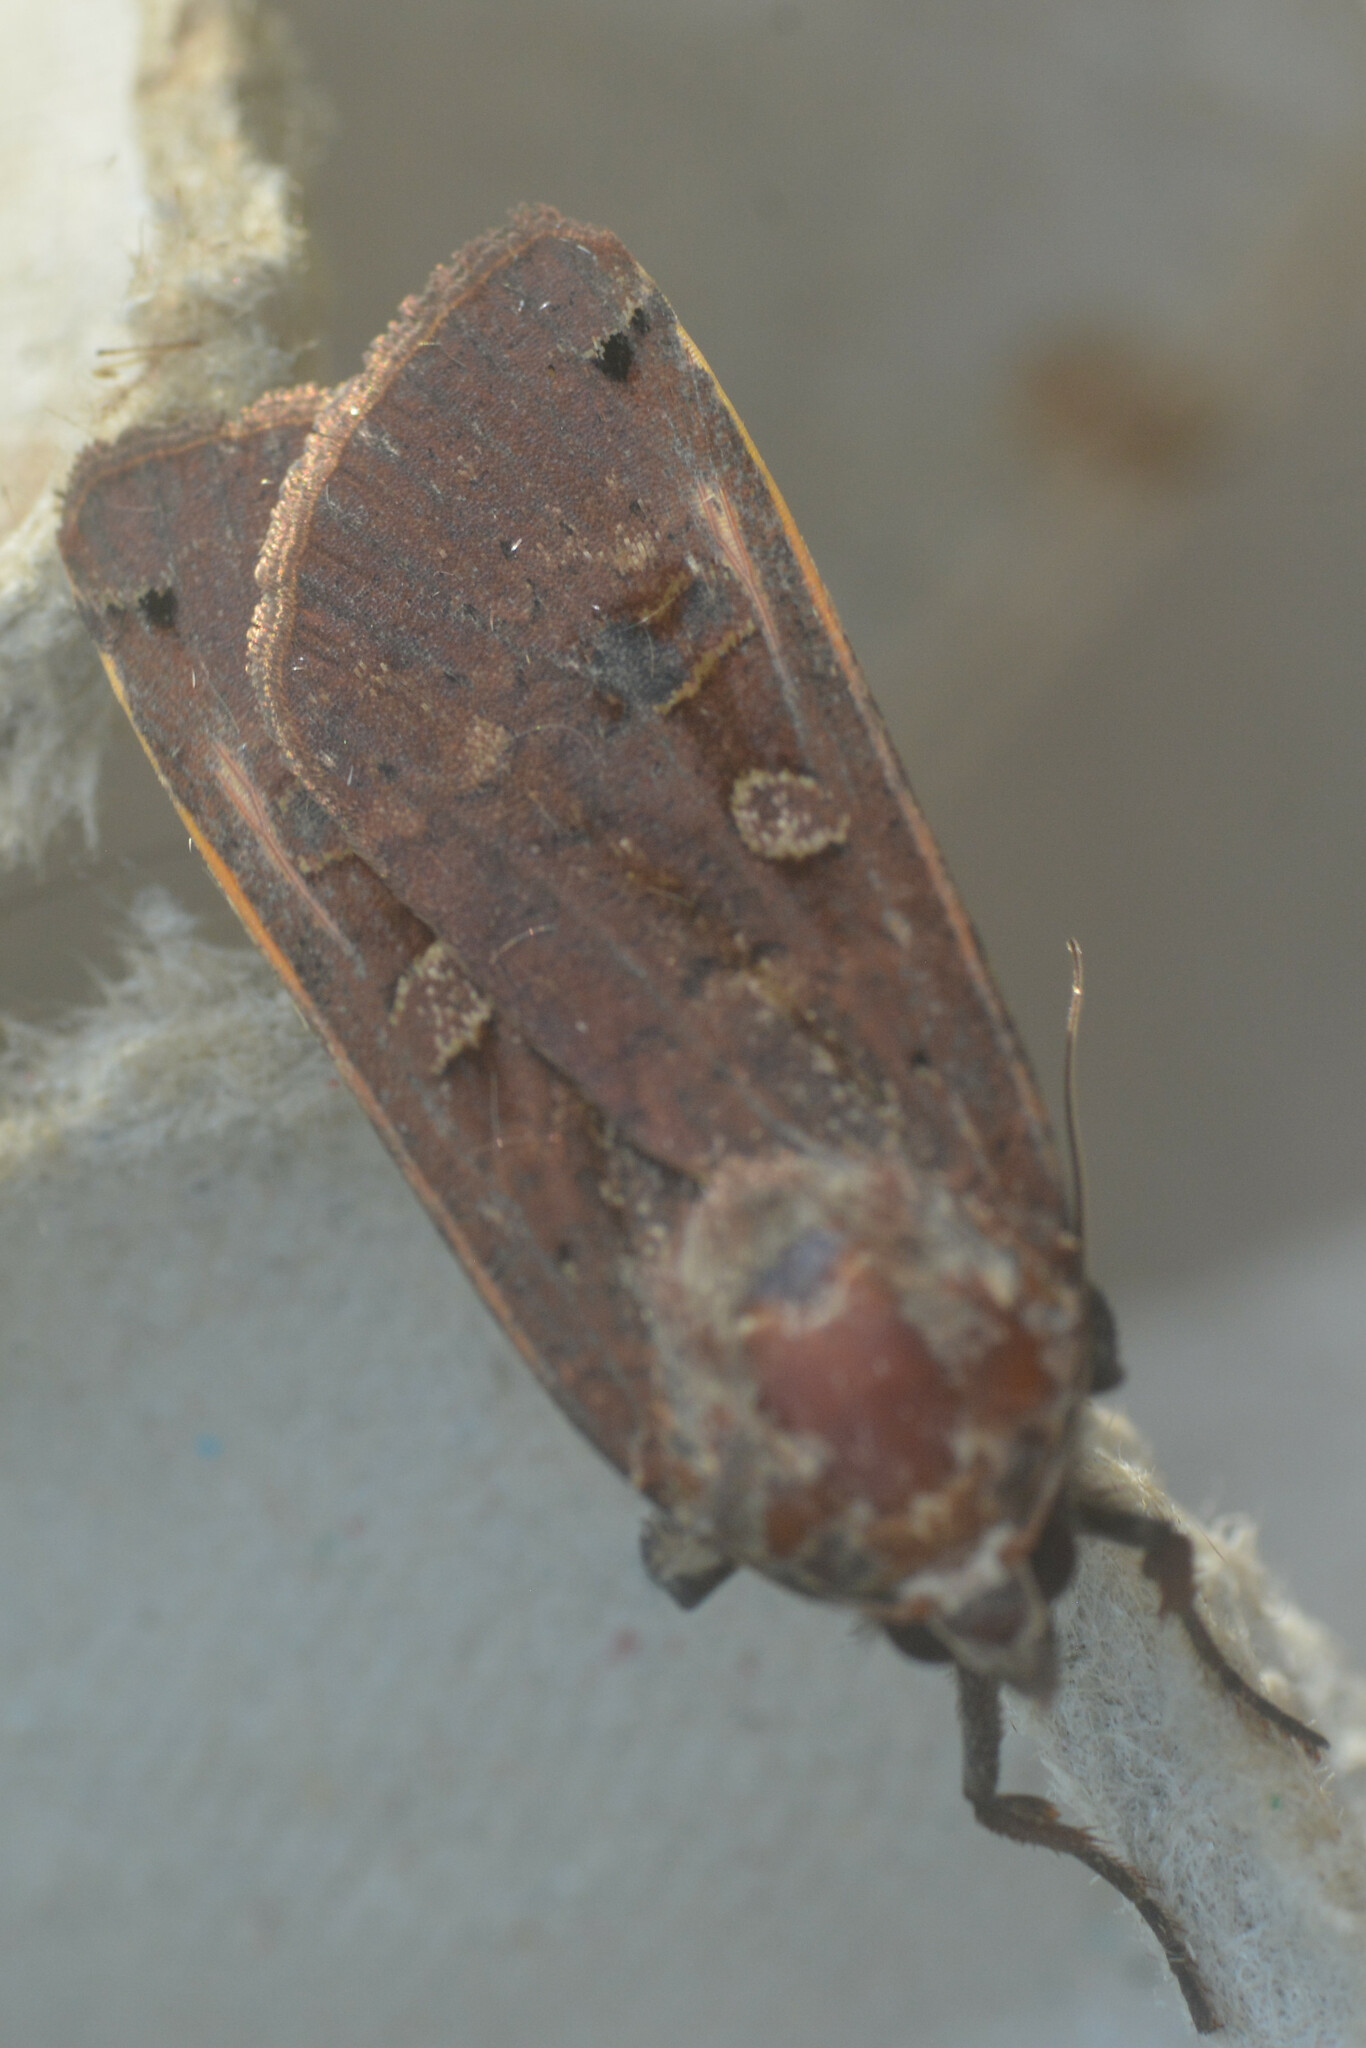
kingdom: Animalia
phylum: Arthropoda
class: Insecta
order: Lepidoptera
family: Noctuidae
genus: Noctua
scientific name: Noctua pronuba
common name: Large yellow underwing
